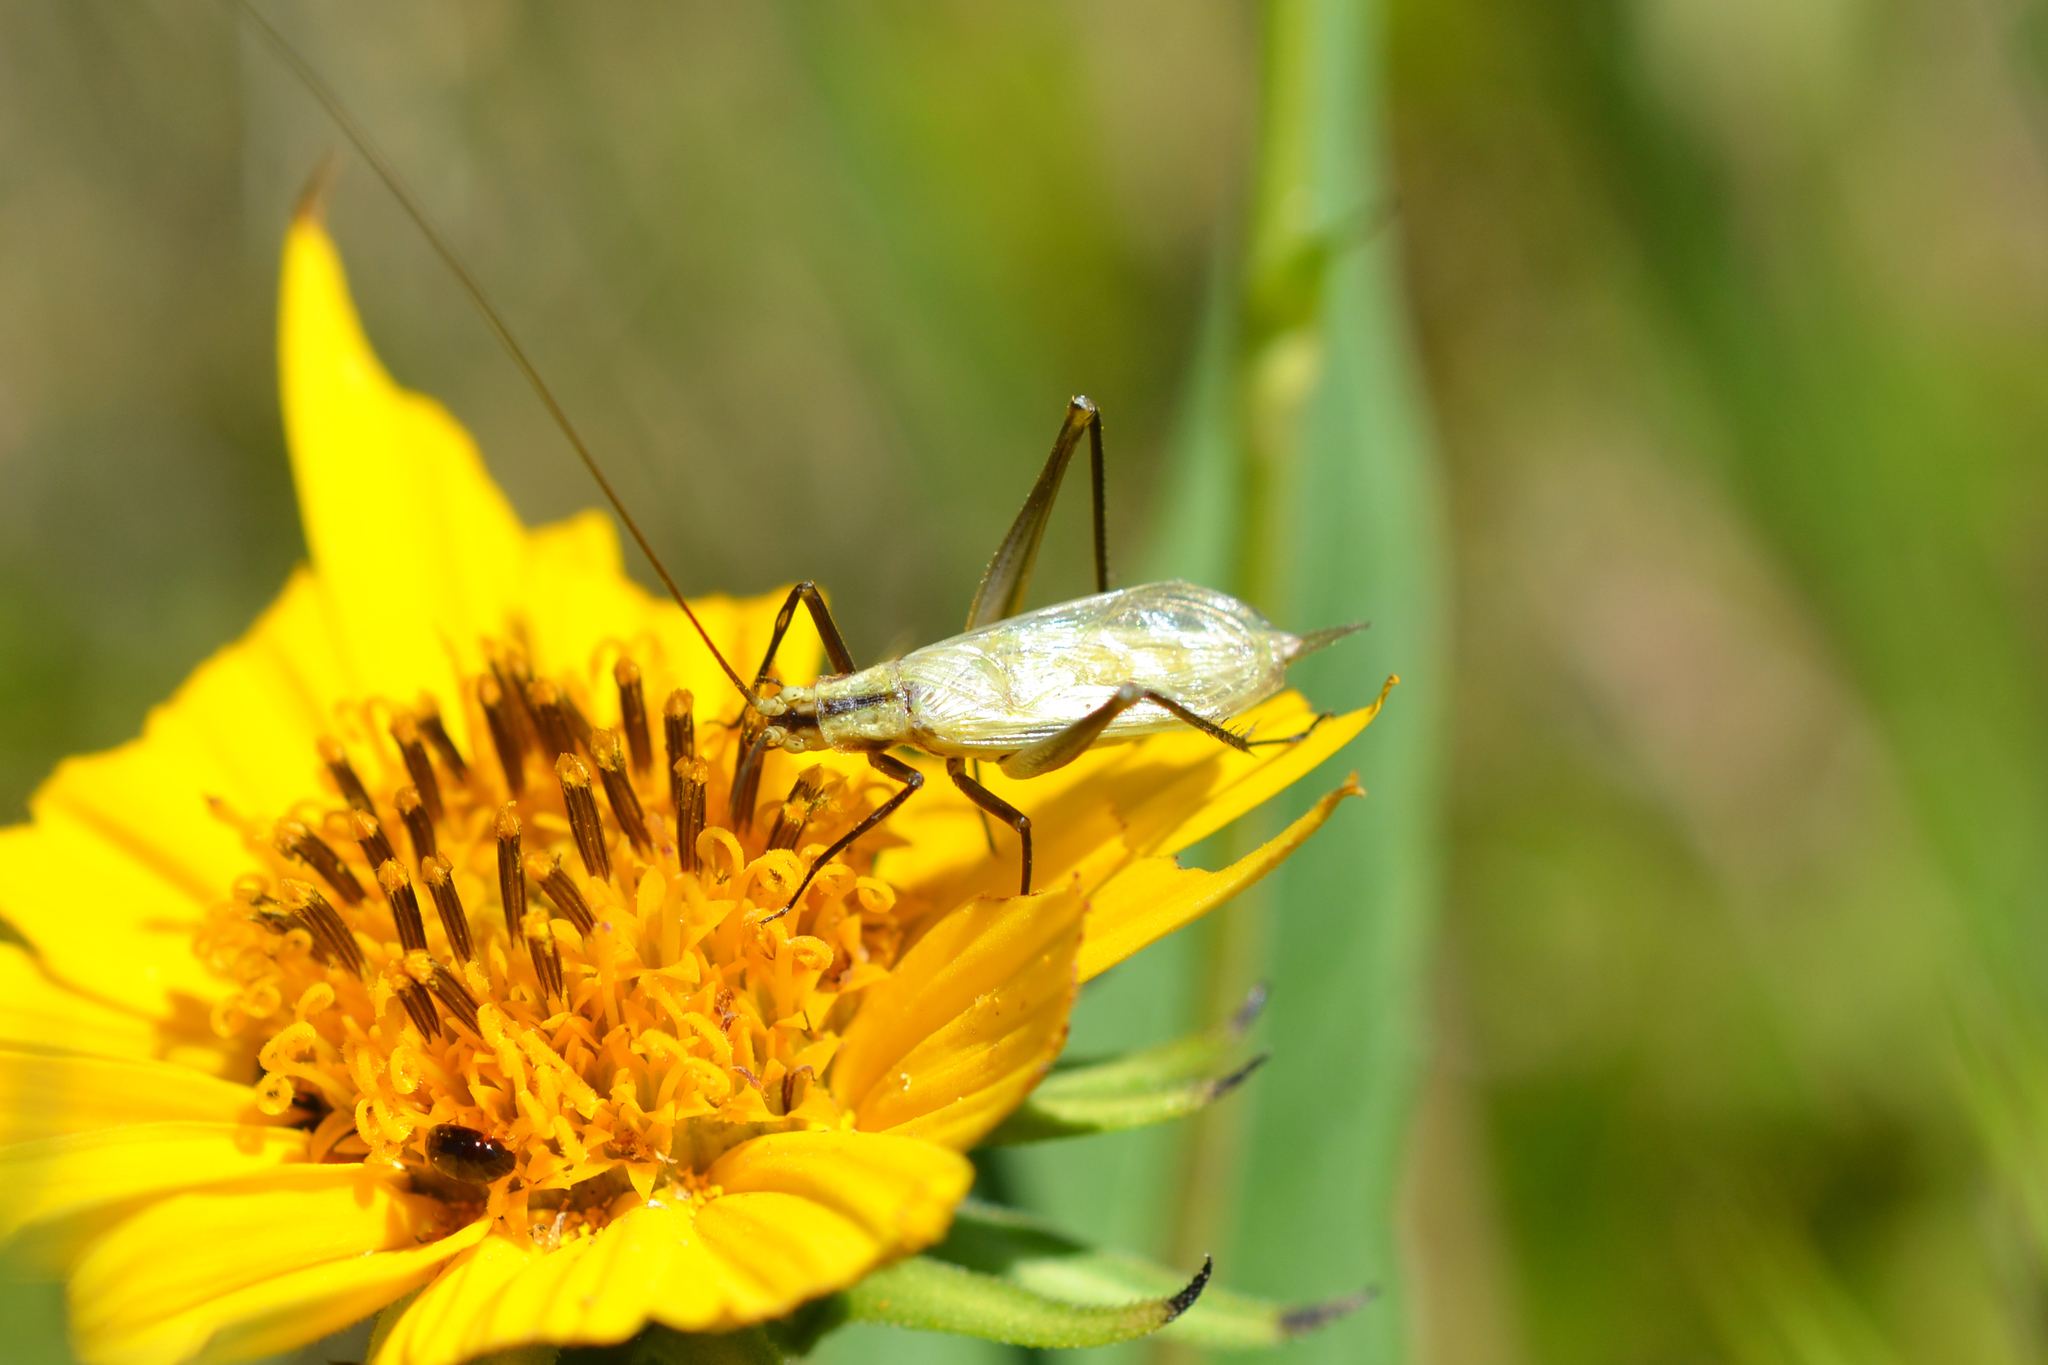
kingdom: Animalia
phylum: Arthropoda
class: Insecta
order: Orthoptera
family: Gryllidae
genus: Oecanthus
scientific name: Oecanthus nigricornis
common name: Black-horned tree cricket
